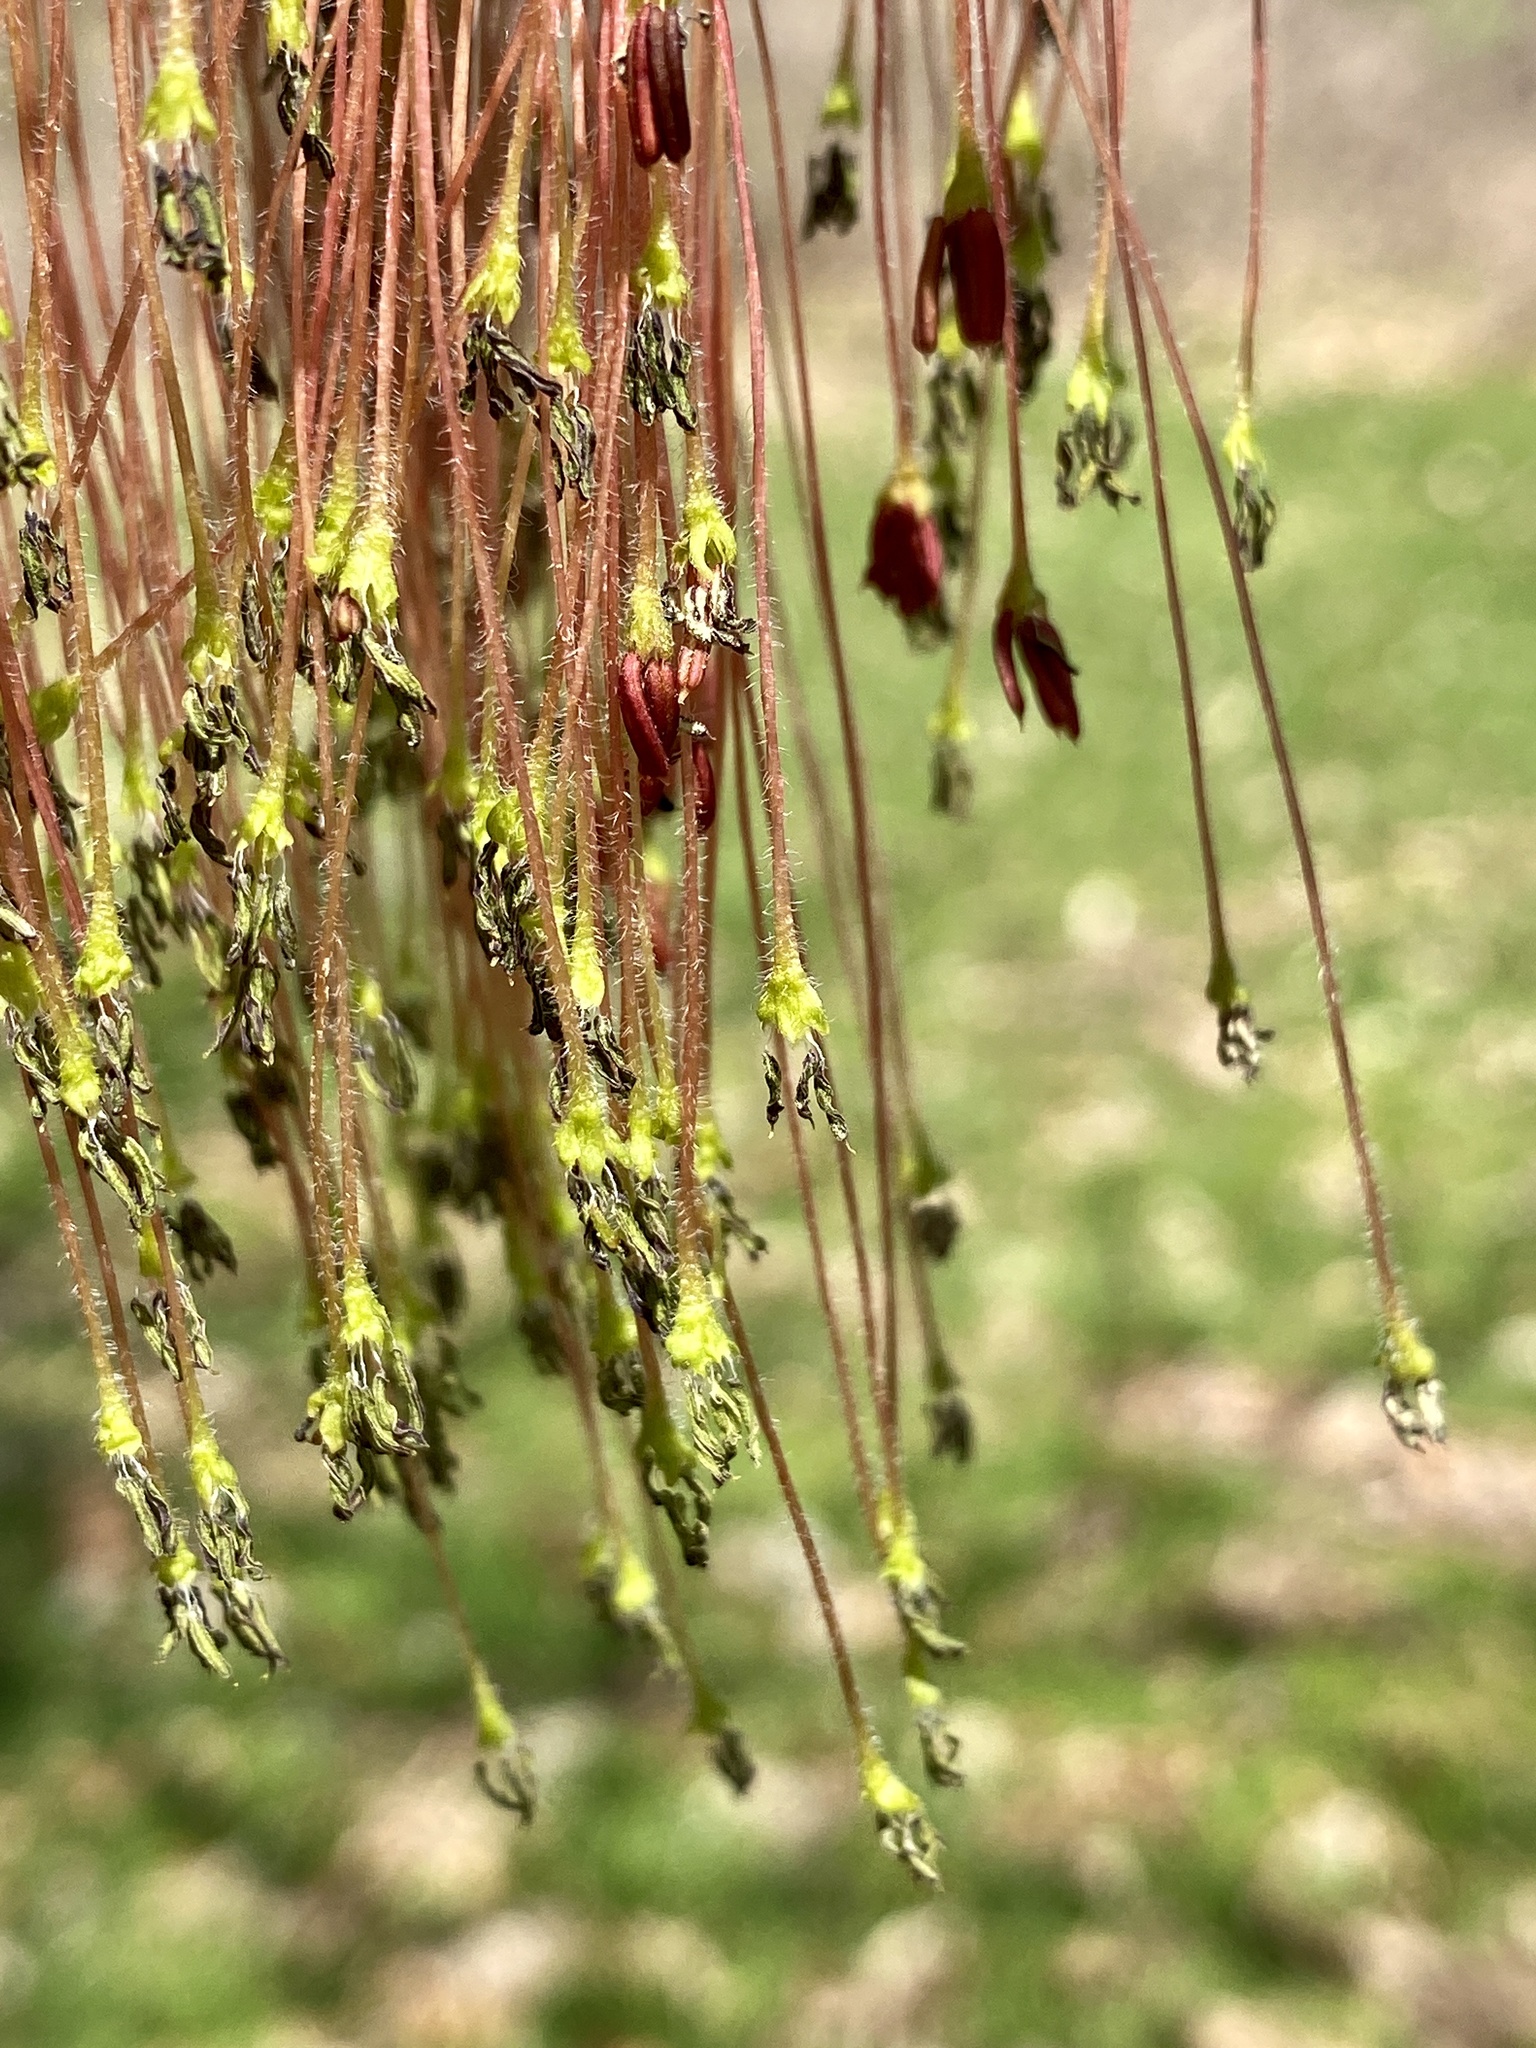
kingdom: Plantae
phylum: Tracheophyta
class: Magnoliopsida
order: Sapindales
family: Sapindaceae
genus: Acer
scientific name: Acer negundo
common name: Ashleaf maple
